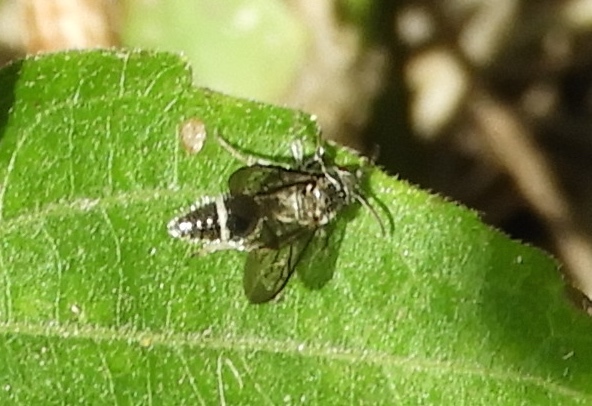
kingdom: Animalia
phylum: Arthropoda
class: Insecta
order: Hymenoptera
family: Mutillidae
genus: Ephuta
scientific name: Ephuta
